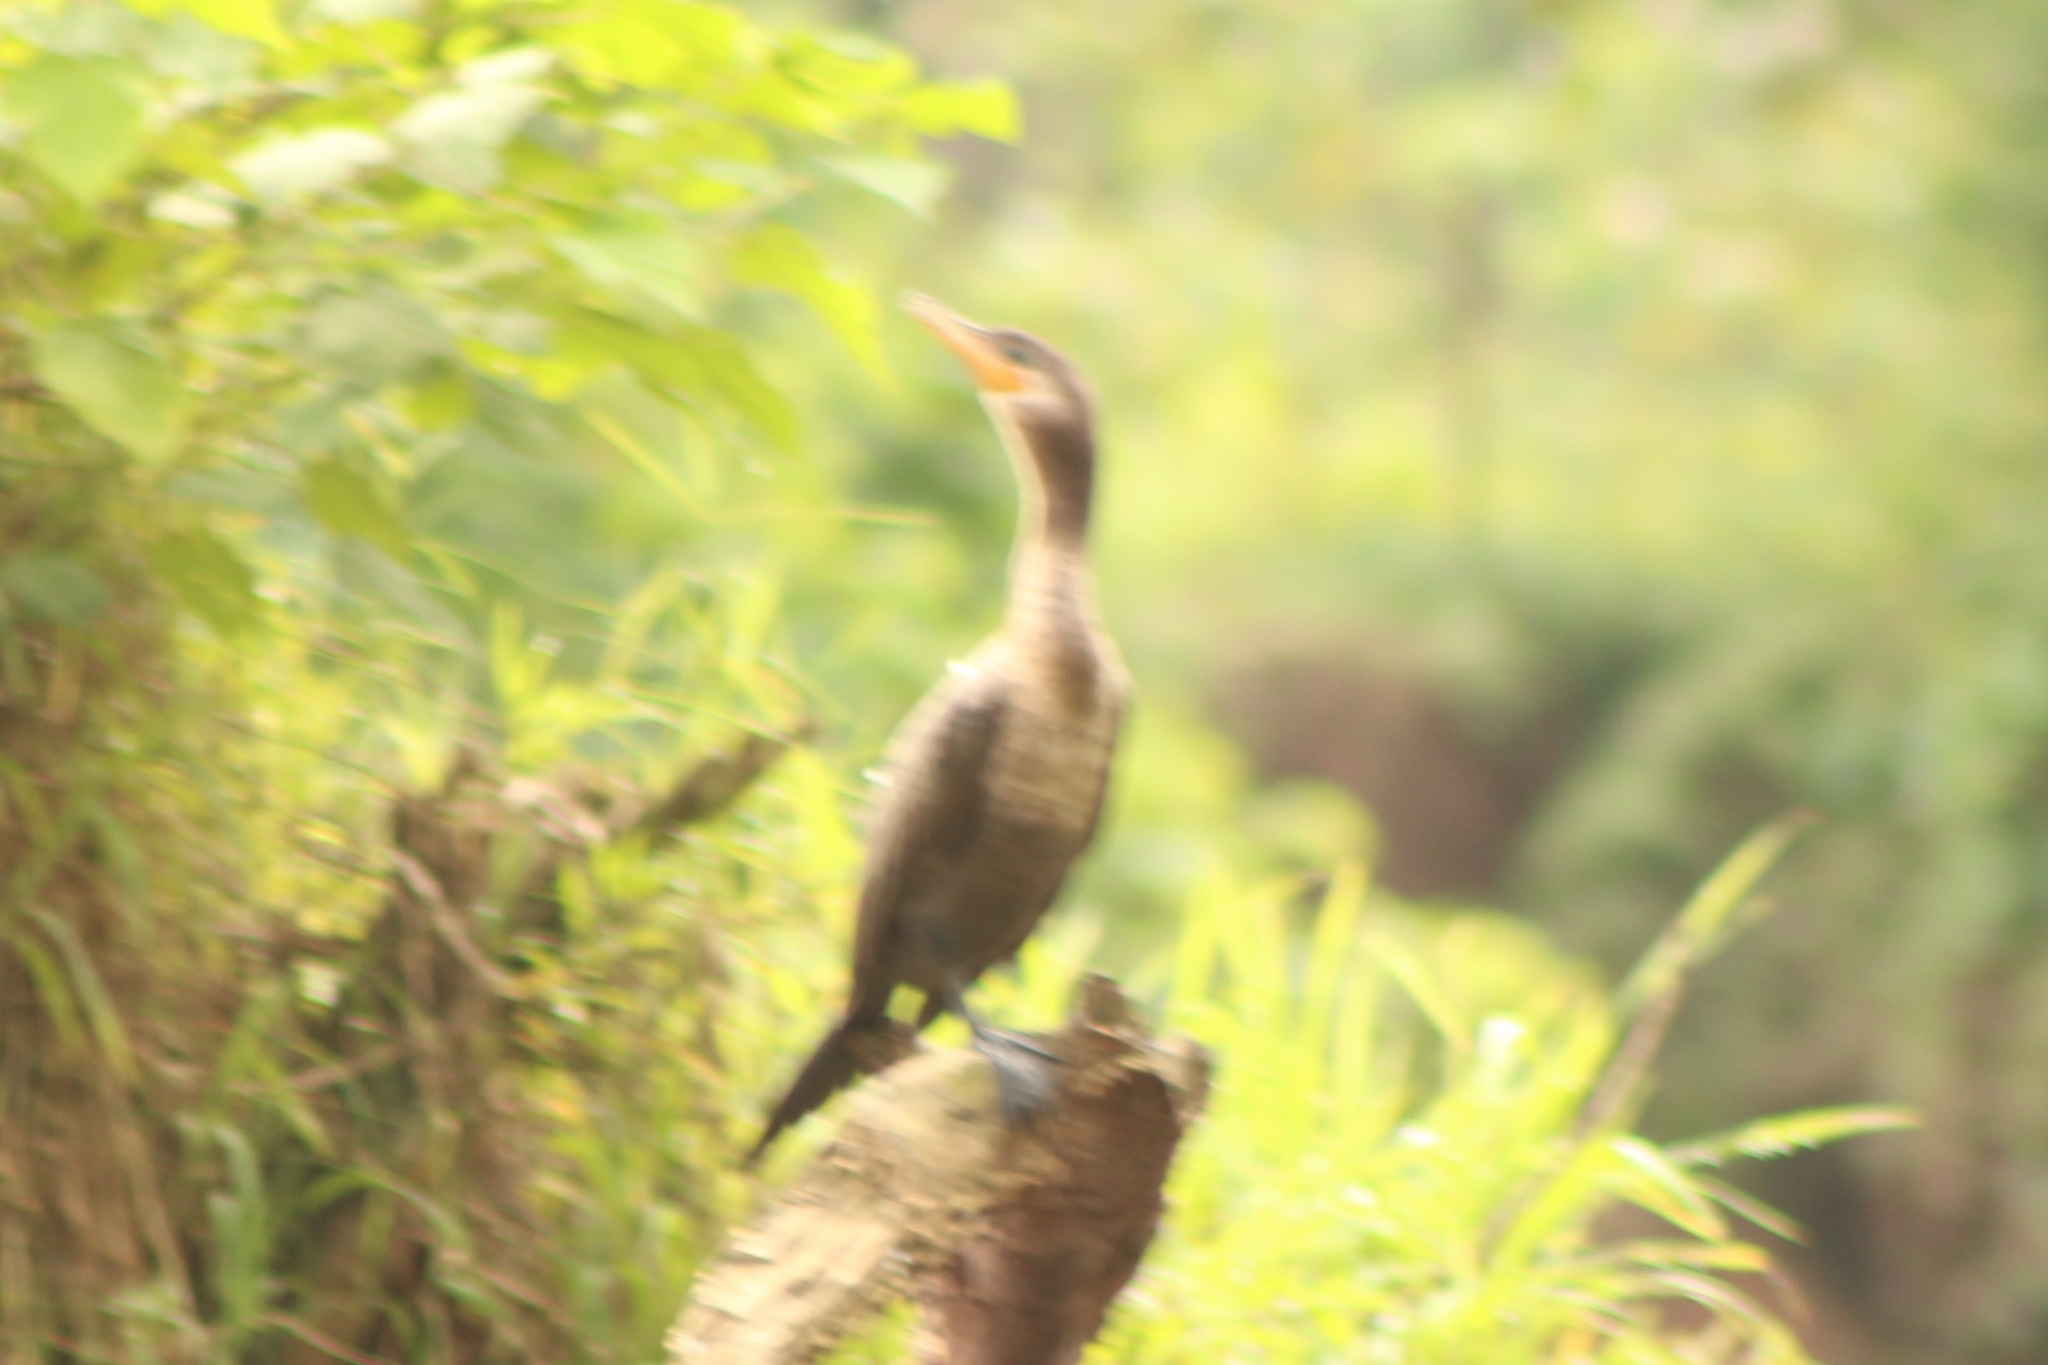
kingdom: Animalia
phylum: Chordata
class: Aves
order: Suliformes
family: Phalacrocoracidae
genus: Phalacrocorax
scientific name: Phalacrocorax brasilianus
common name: Neotropic cormorant
